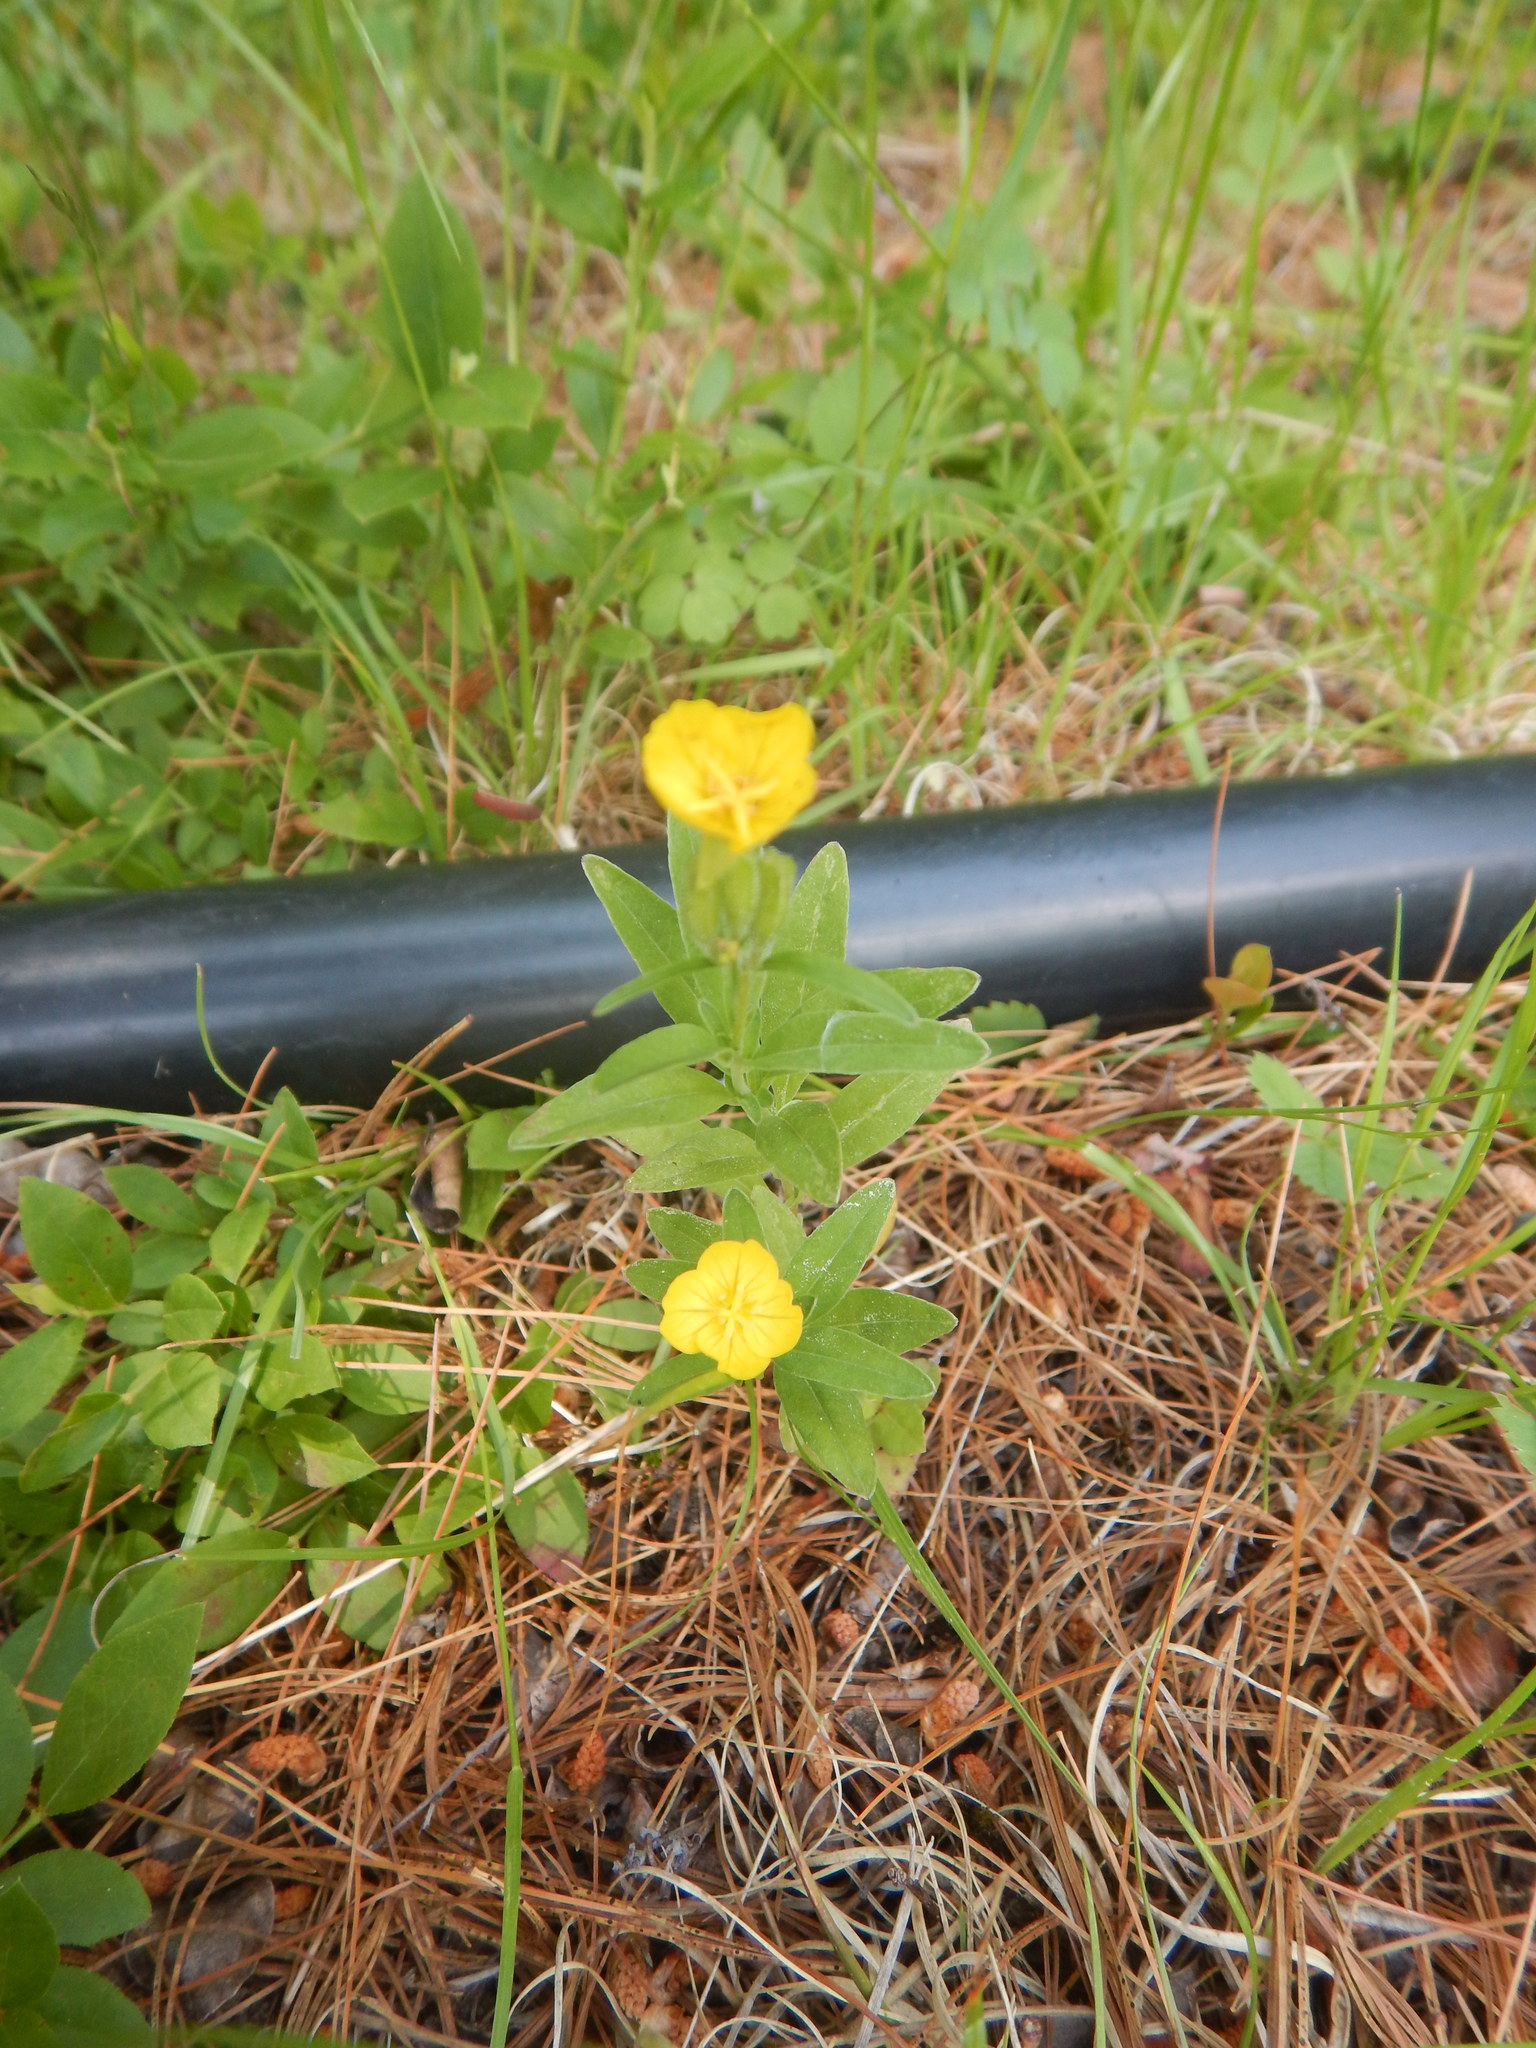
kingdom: Plantae
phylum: Tracheophyta
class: Magnoliopsida
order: Myrtales
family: Onagraceae
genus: Oenothera
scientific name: Oenothera perennis
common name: Small sundrops
